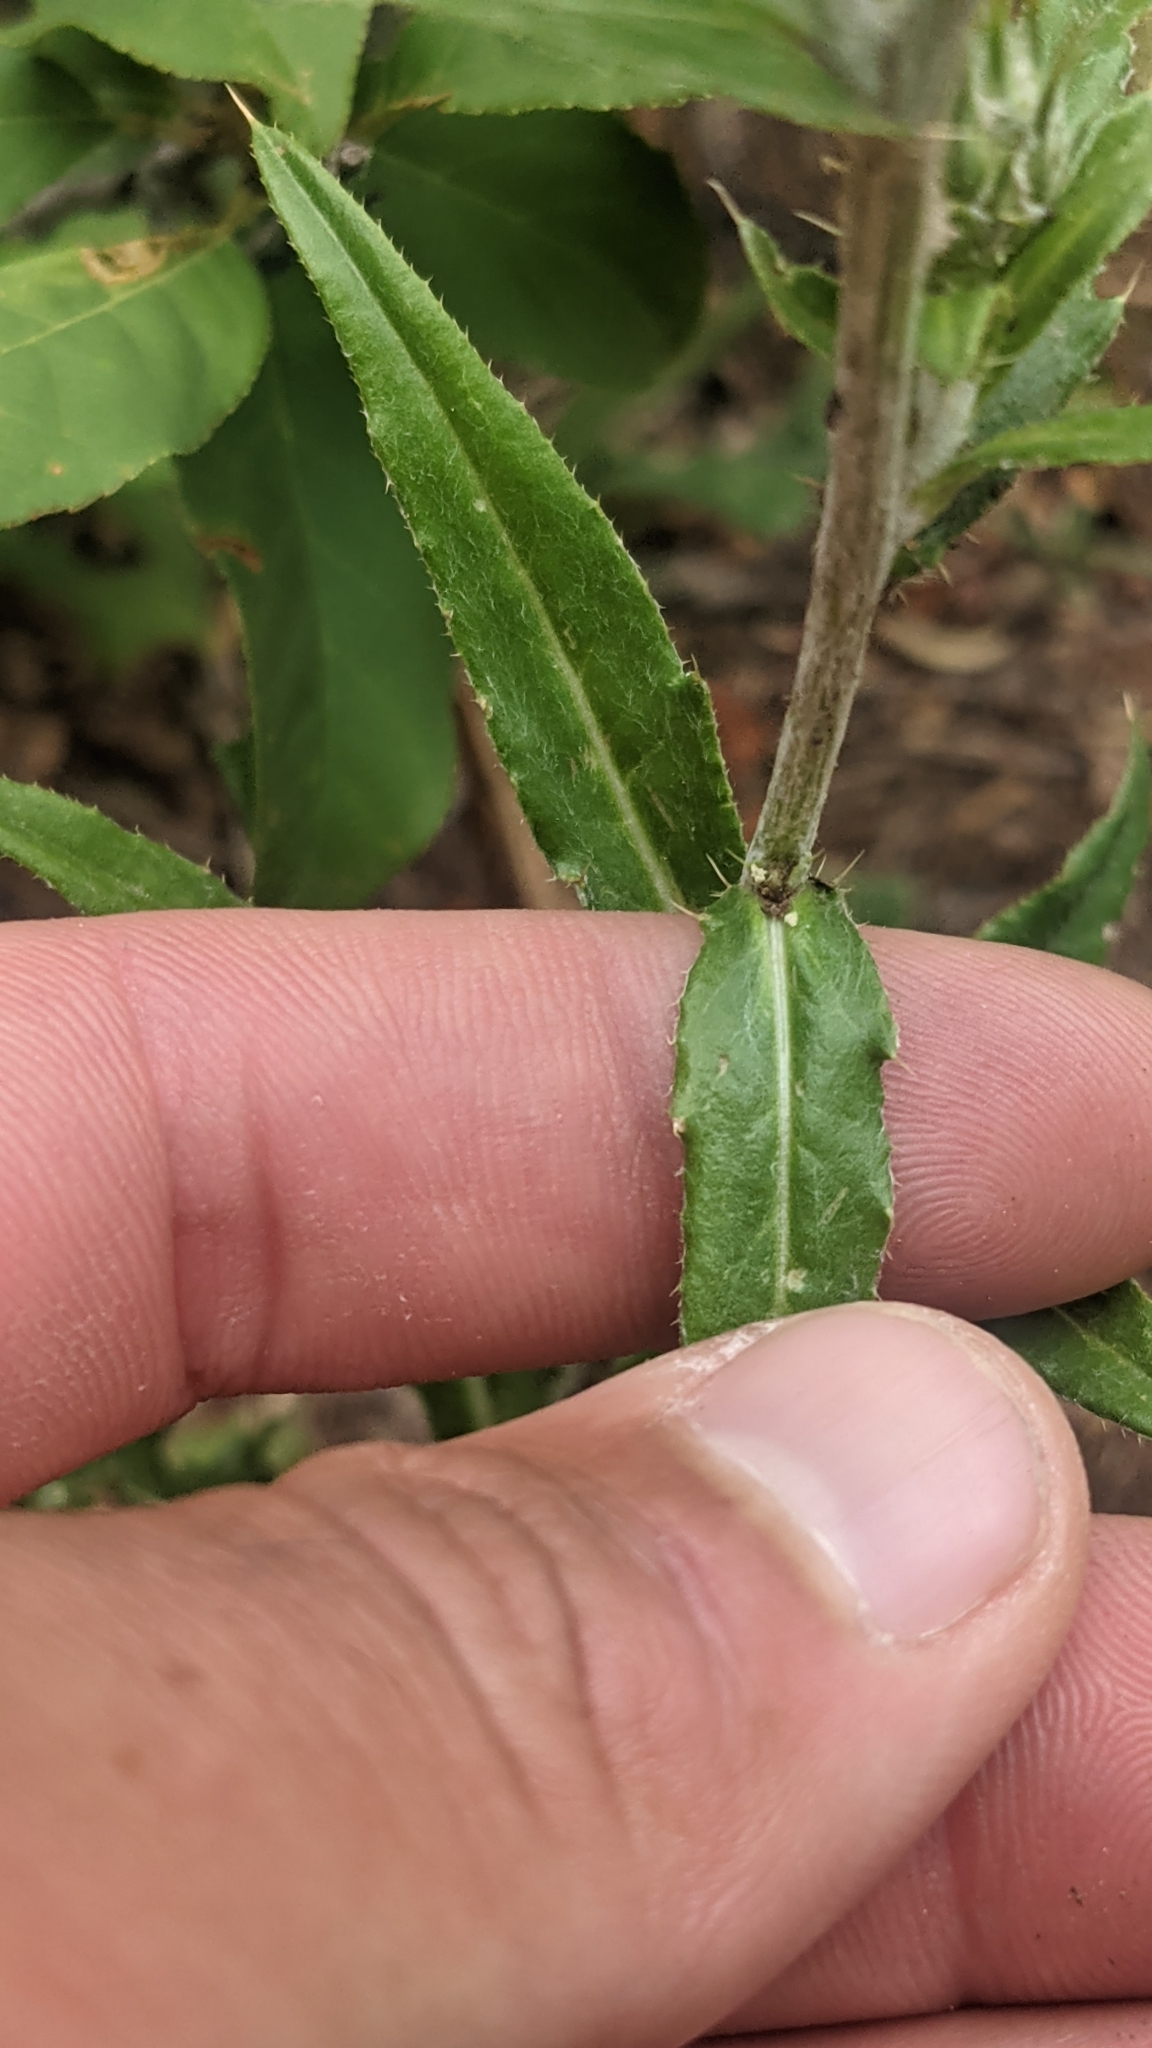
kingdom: Plantae
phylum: Tracheophyta
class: Magnoliopsida
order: Asterales
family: Asteraceae
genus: Cirsium
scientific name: Cirsium wheeleri
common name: Wheeler's thistle
